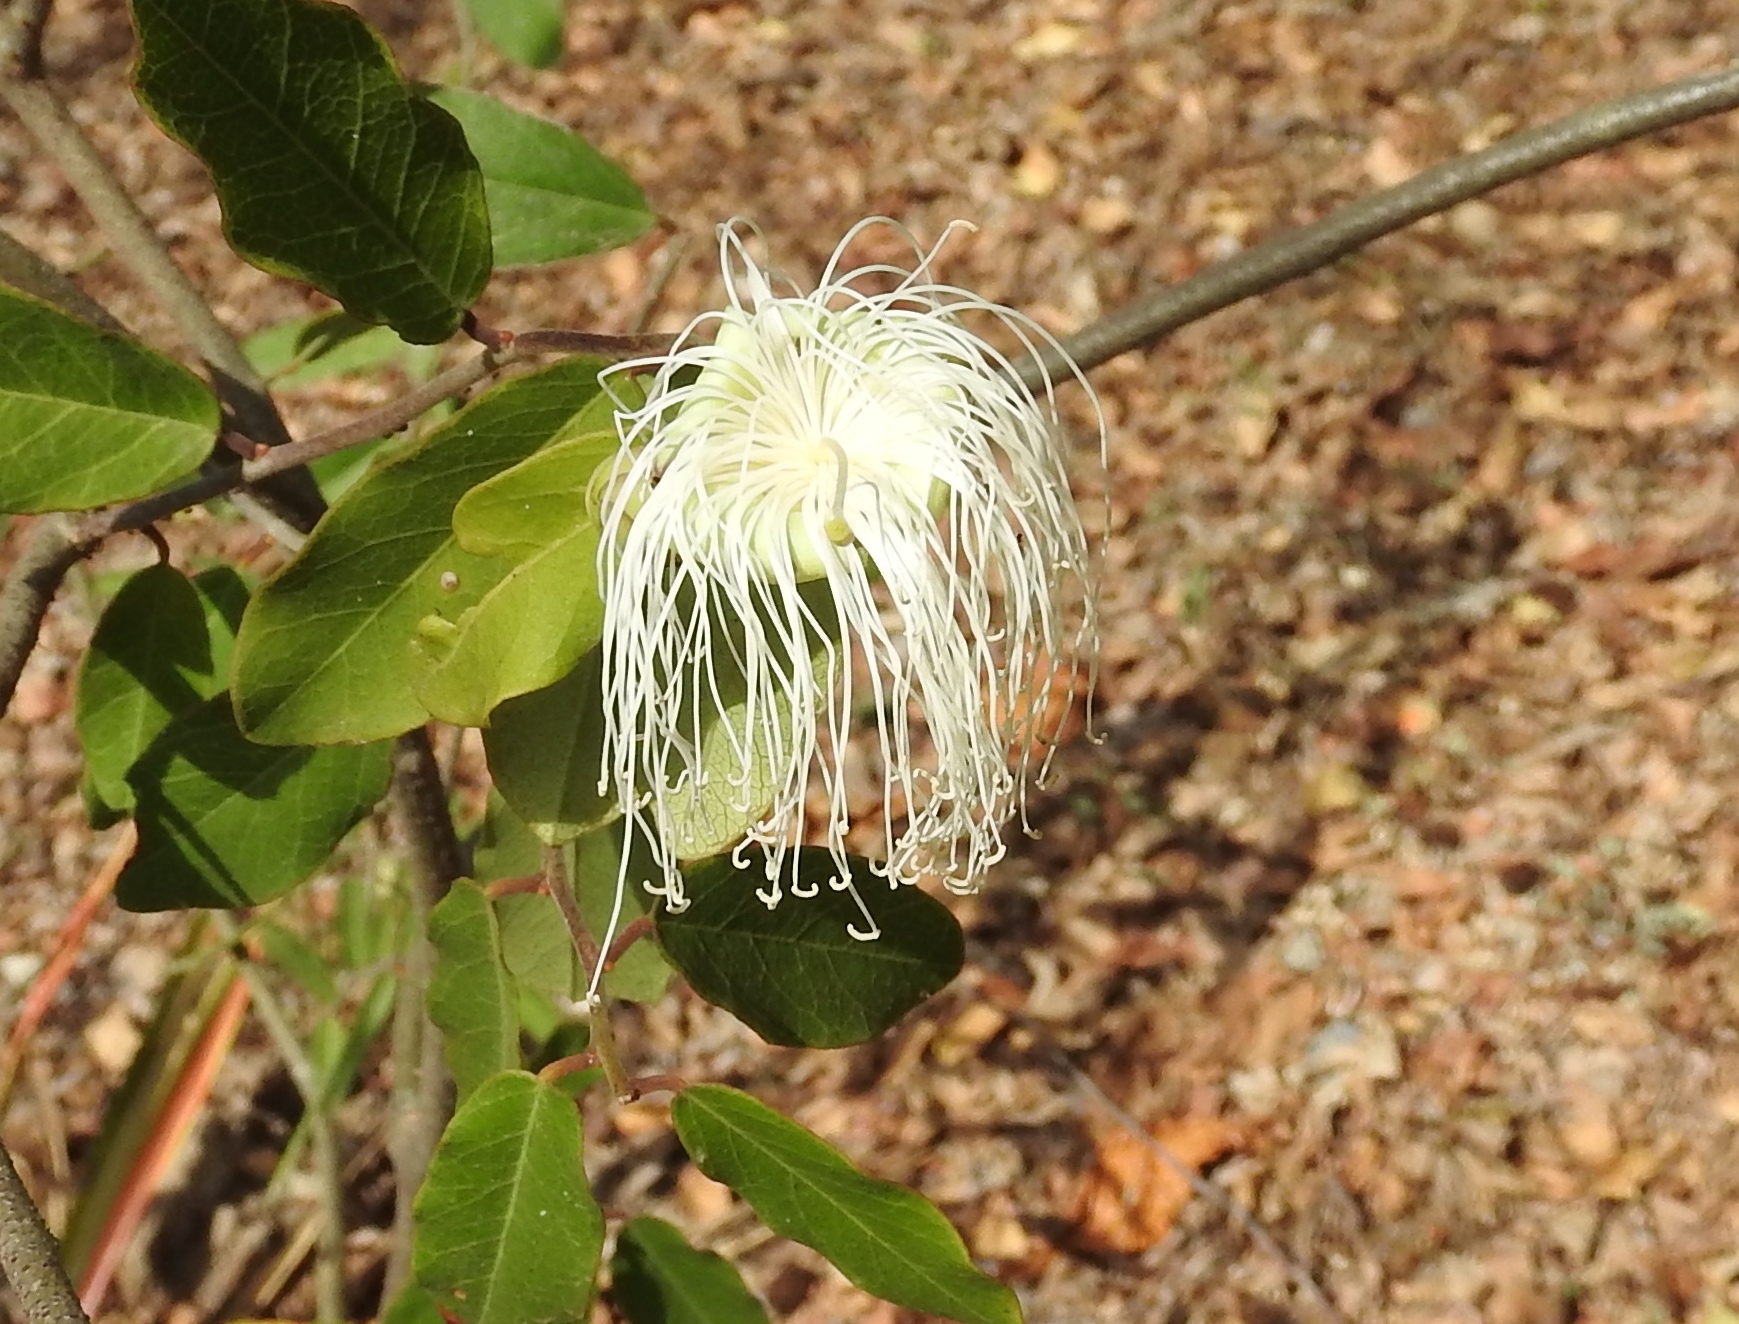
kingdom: Plantae
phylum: Tracheophyta
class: Magnoliopsida
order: Brassicales
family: Capparaceae
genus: Cynophalla
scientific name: Cynophalla flexuosa
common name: Capertree
